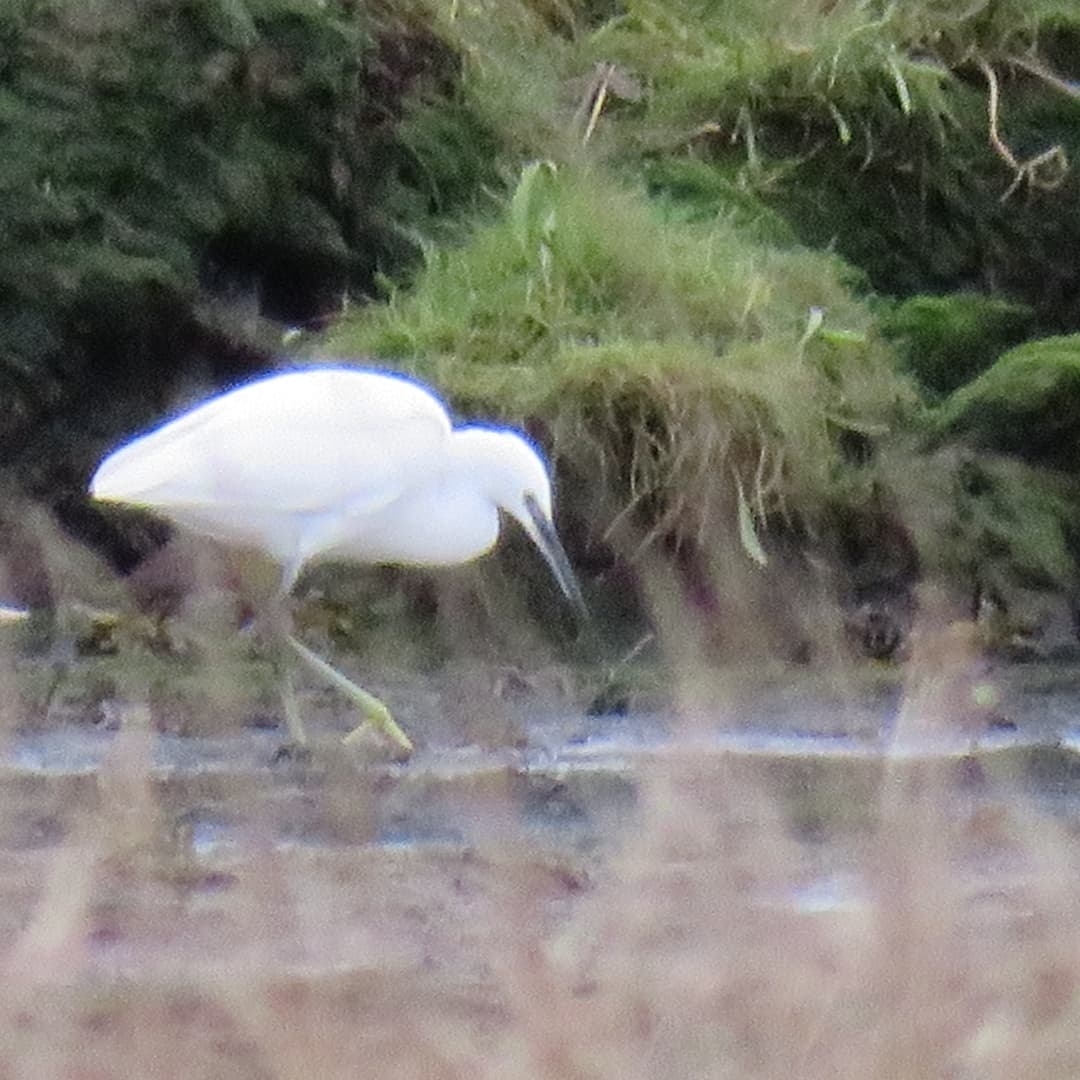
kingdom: Animalia
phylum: Chordata
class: Aves
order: Pelecaniformes
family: Ardeidae
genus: Egretta
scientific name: Egretta garzetta
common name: Little egret
